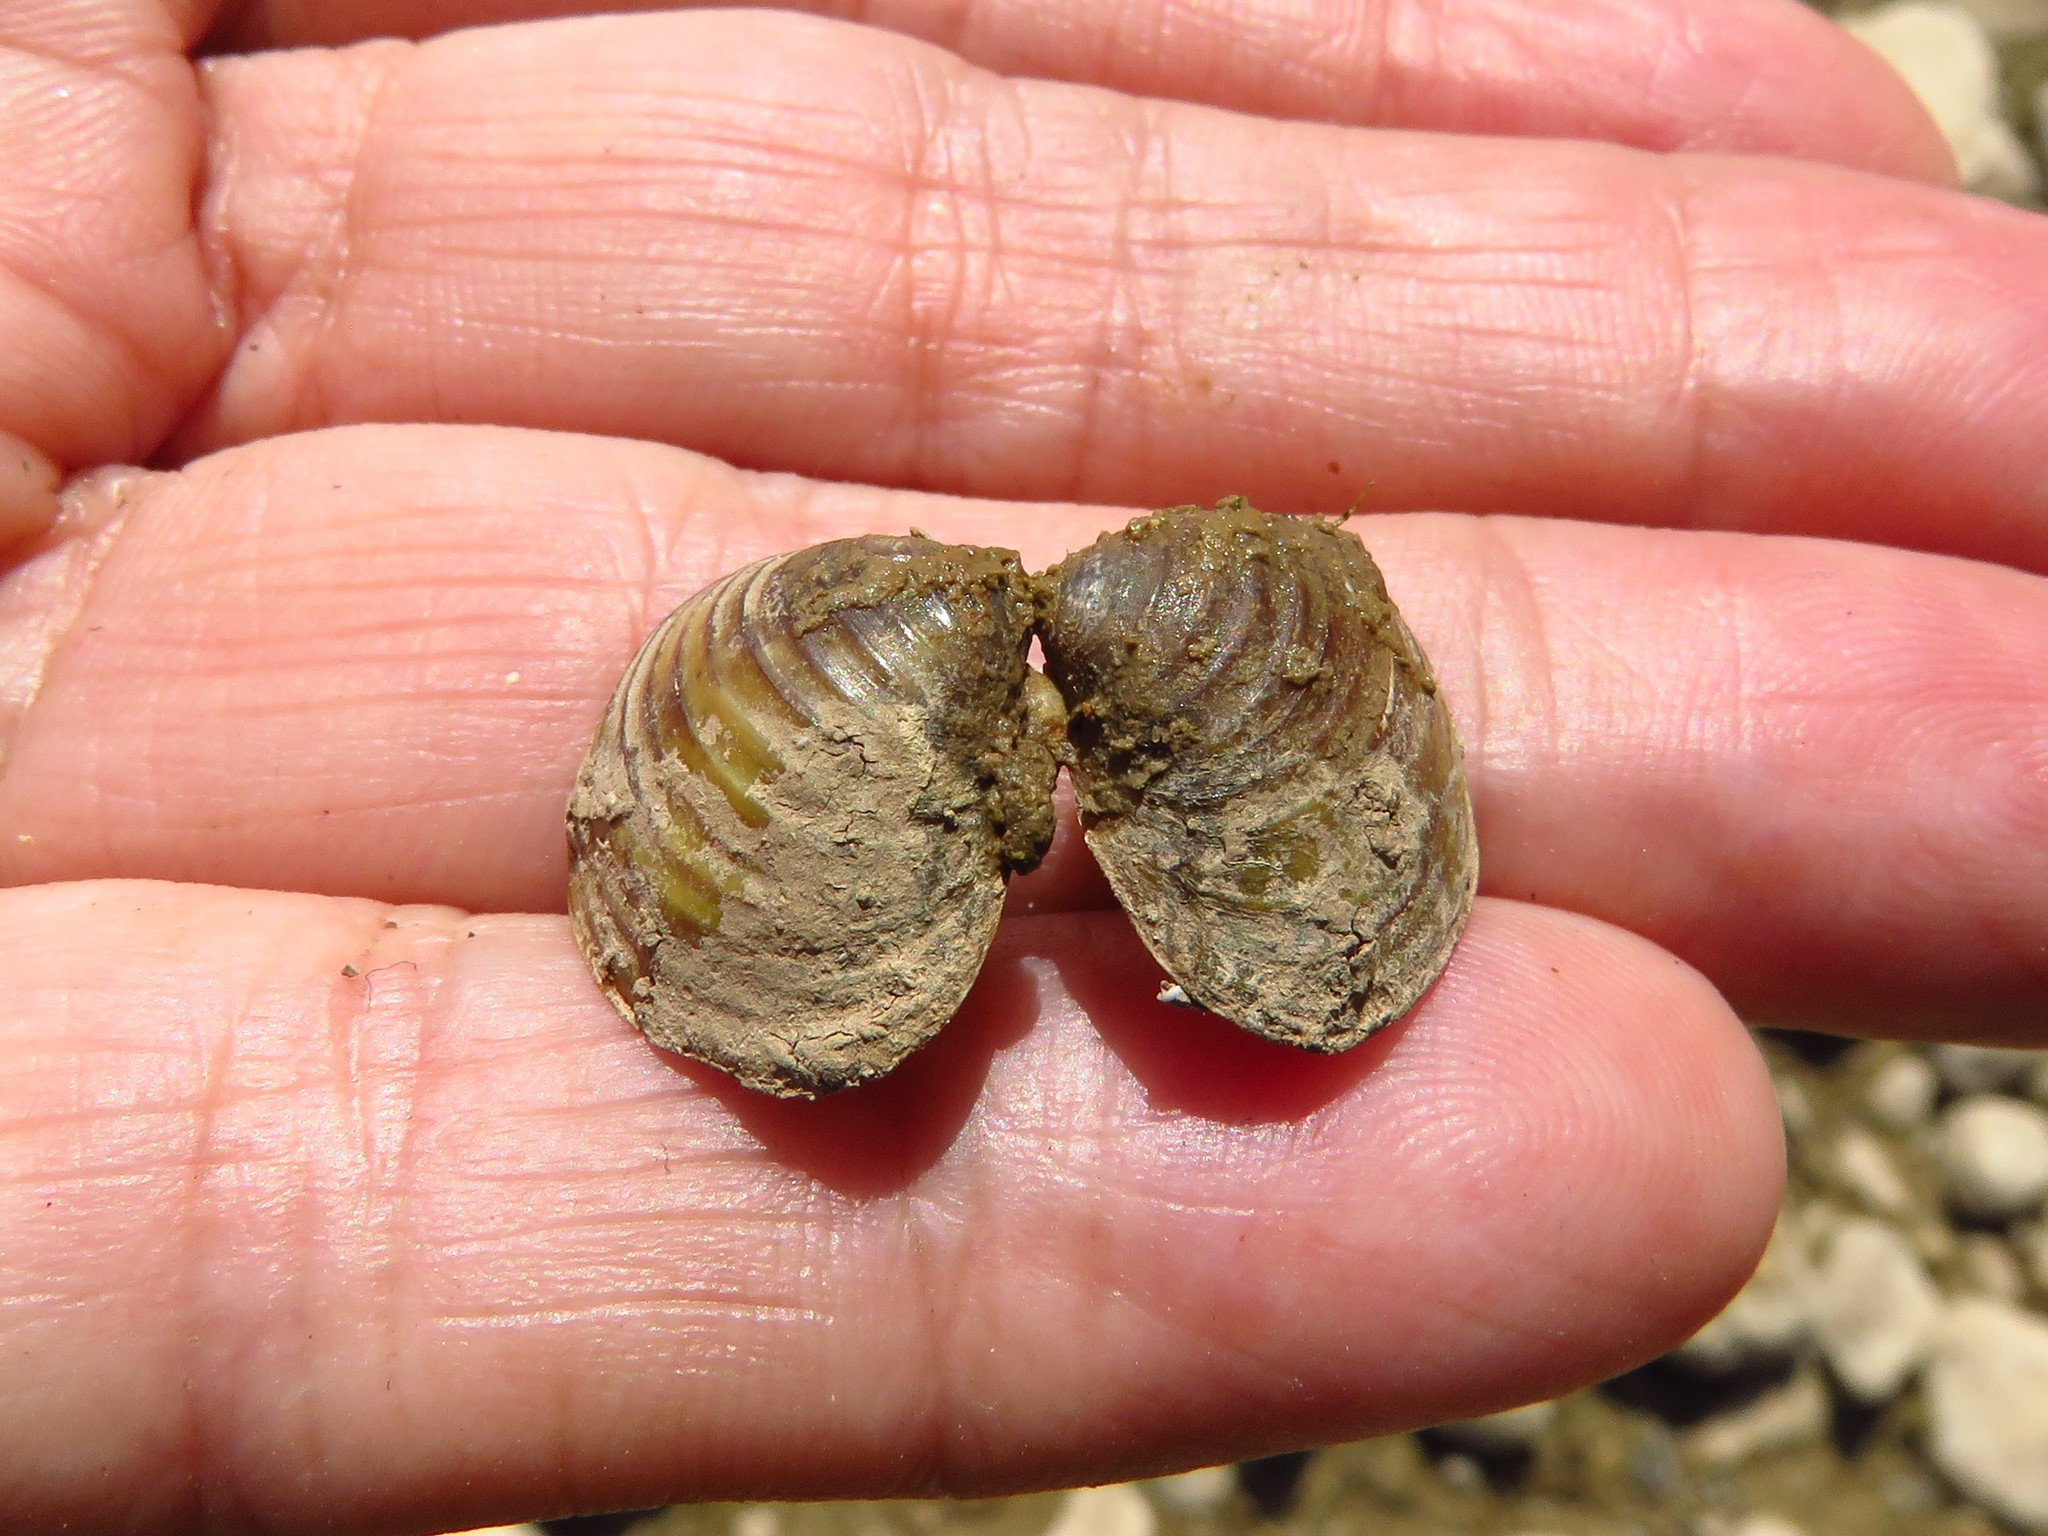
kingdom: Animalia
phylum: Mollusca
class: Bivalvia
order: Venerida
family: Cyrenidae
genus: Corbicula
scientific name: Corbicula fluminea
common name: Asian clam
